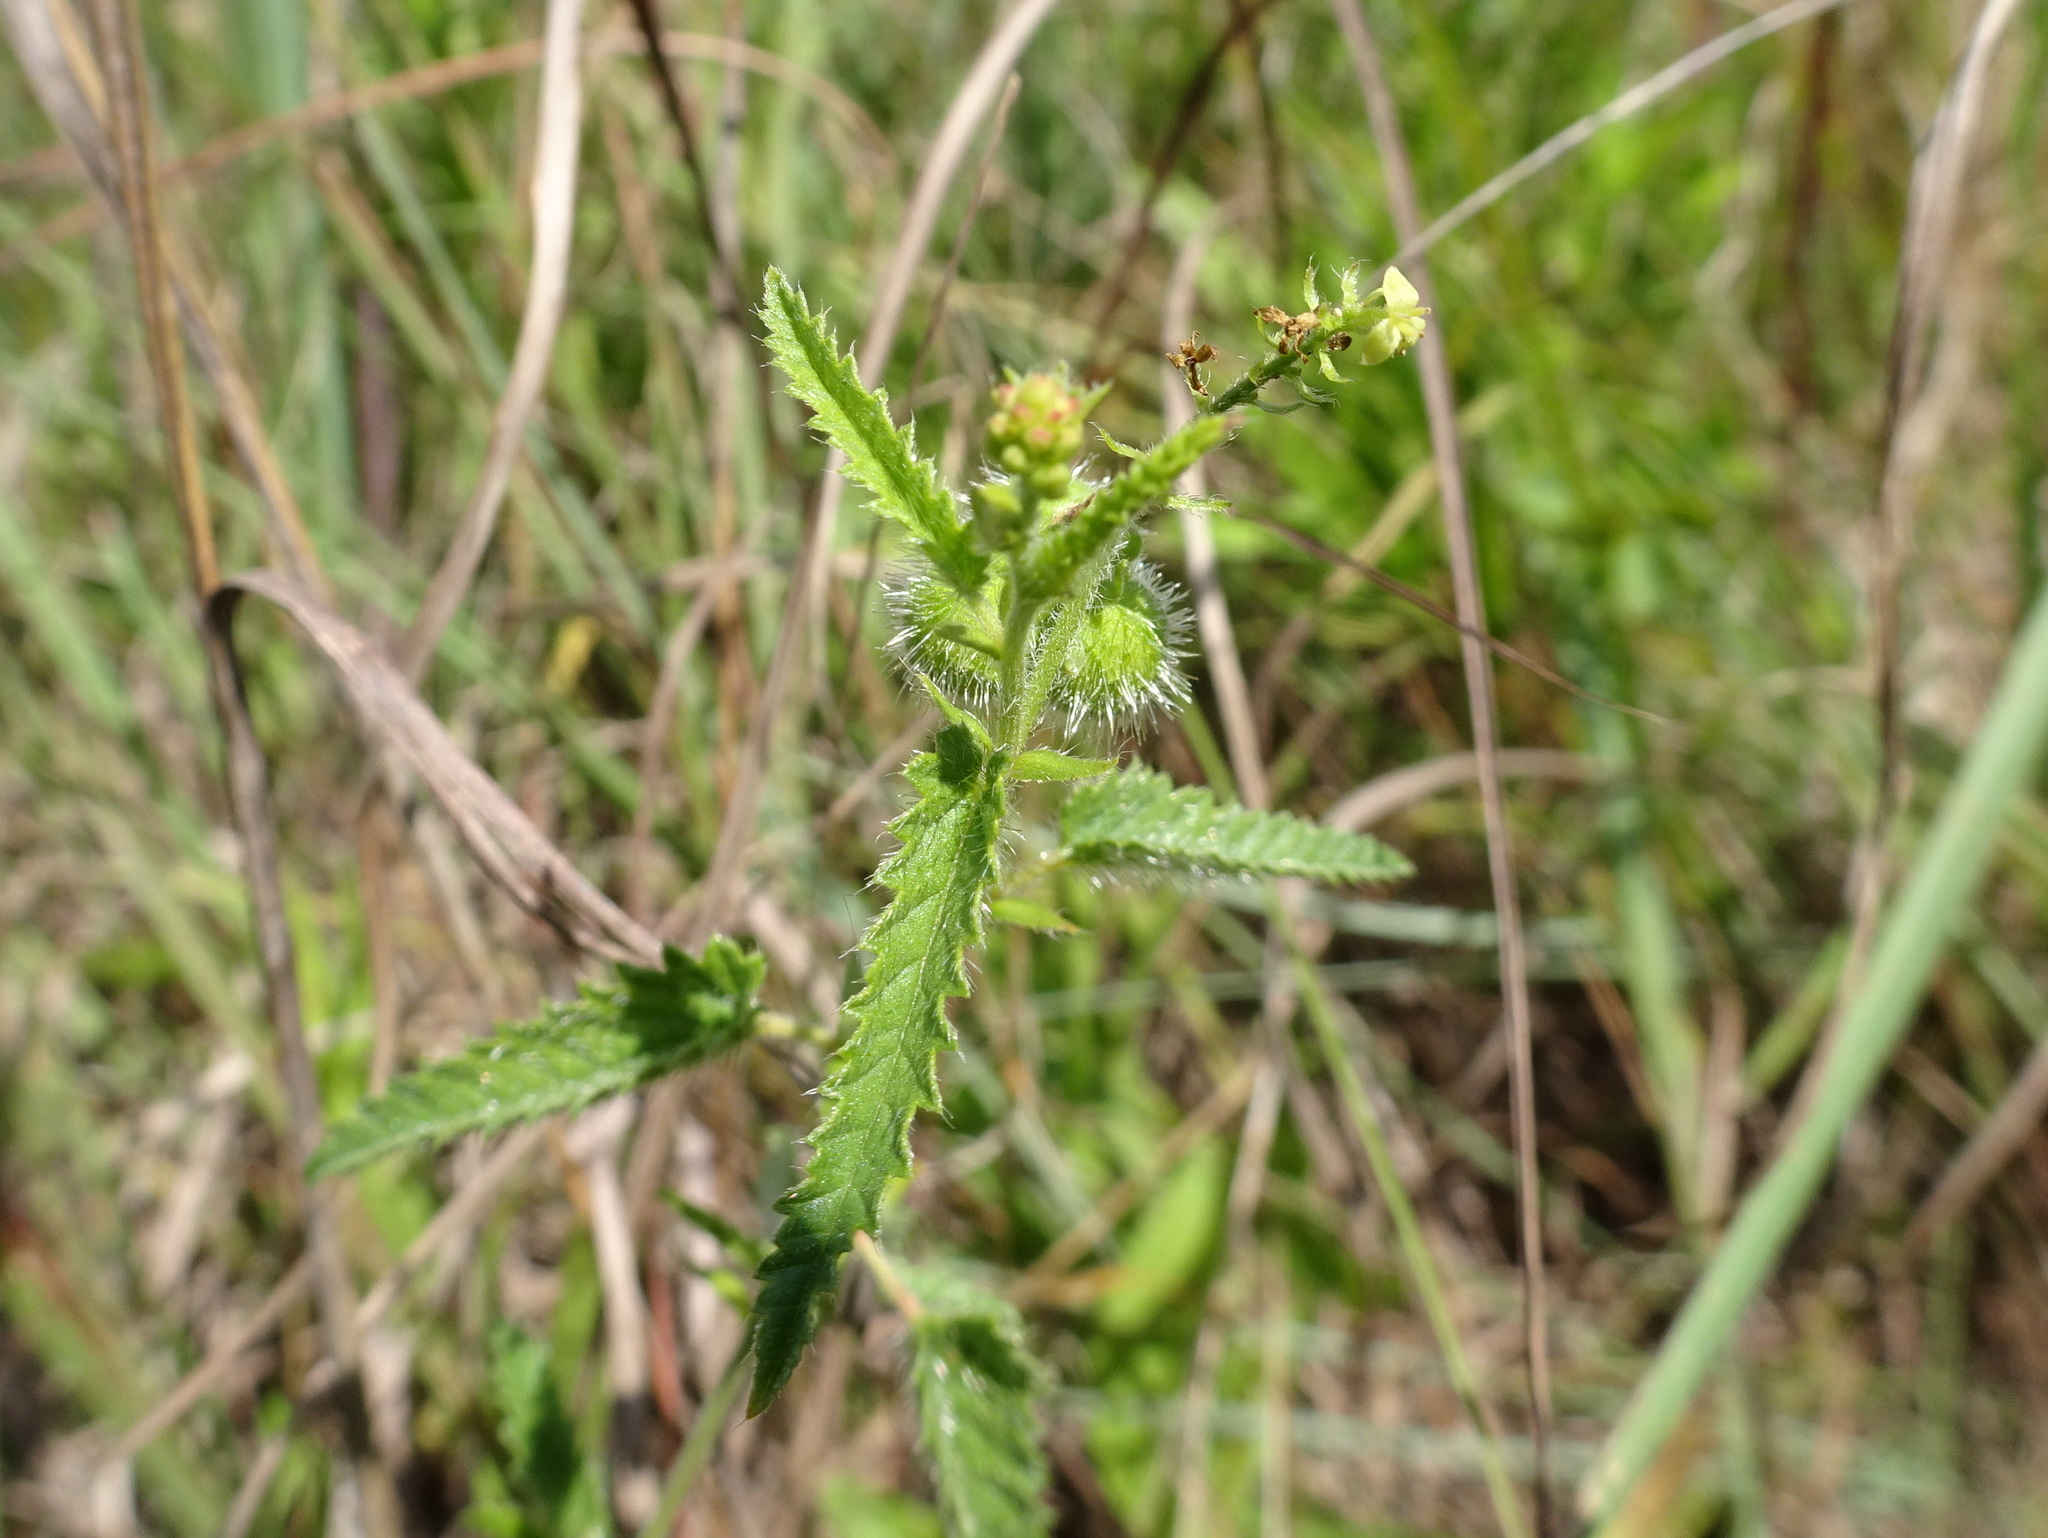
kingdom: Plantae
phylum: Tracheophyta
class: Magnoliopsida
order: Malpighiales
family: Euphorbiaceae
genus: Tragia
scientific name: Tragia betonicifolia
